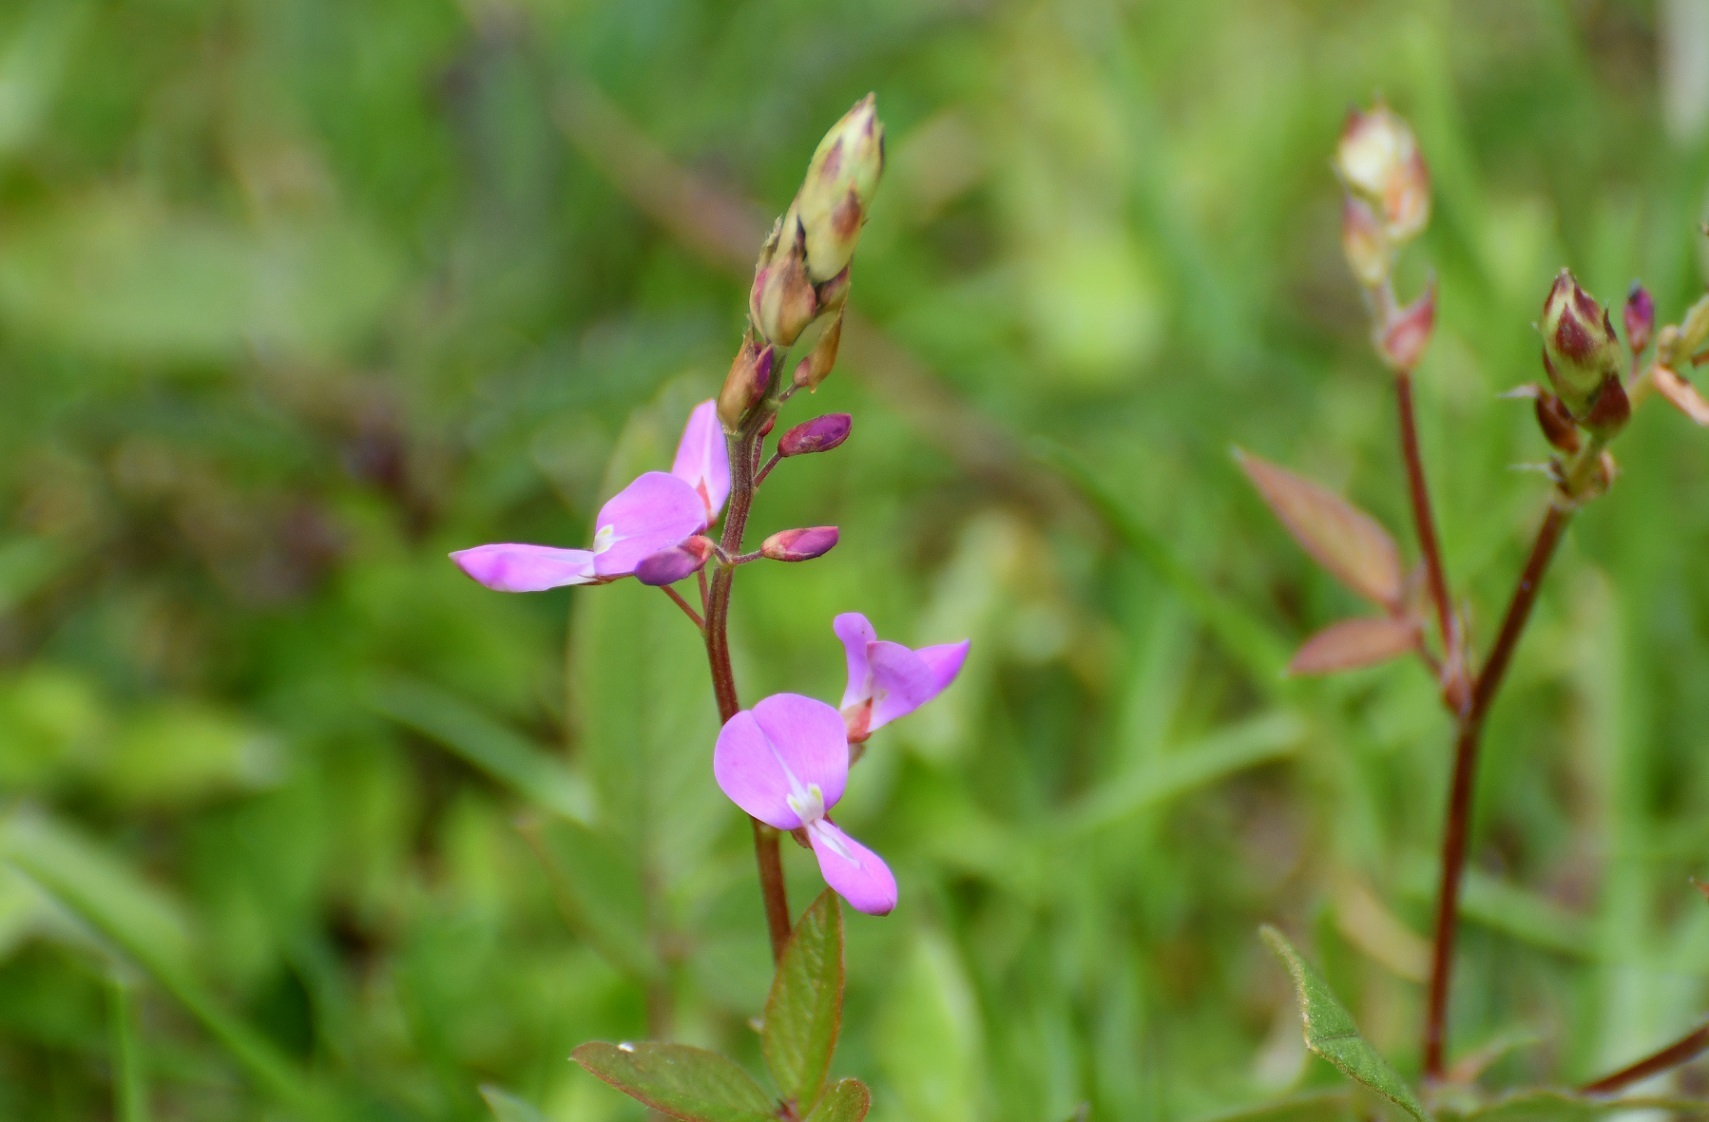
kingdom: Plantae
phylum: Tracheophyta
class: Magnoliopsida
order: Fabales
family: Fabaceae
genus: Desmodium
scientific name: Desmodium pringlei
